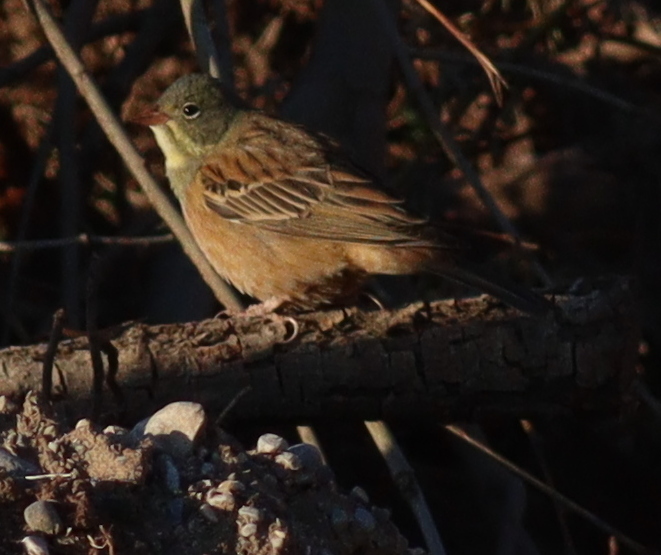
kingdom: Animalia
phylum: Chordata
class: Aves
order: Passeriformes
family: Emberizidae
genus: Emberiza
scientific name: Emberiza hortulana
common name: Ortolan bunting
